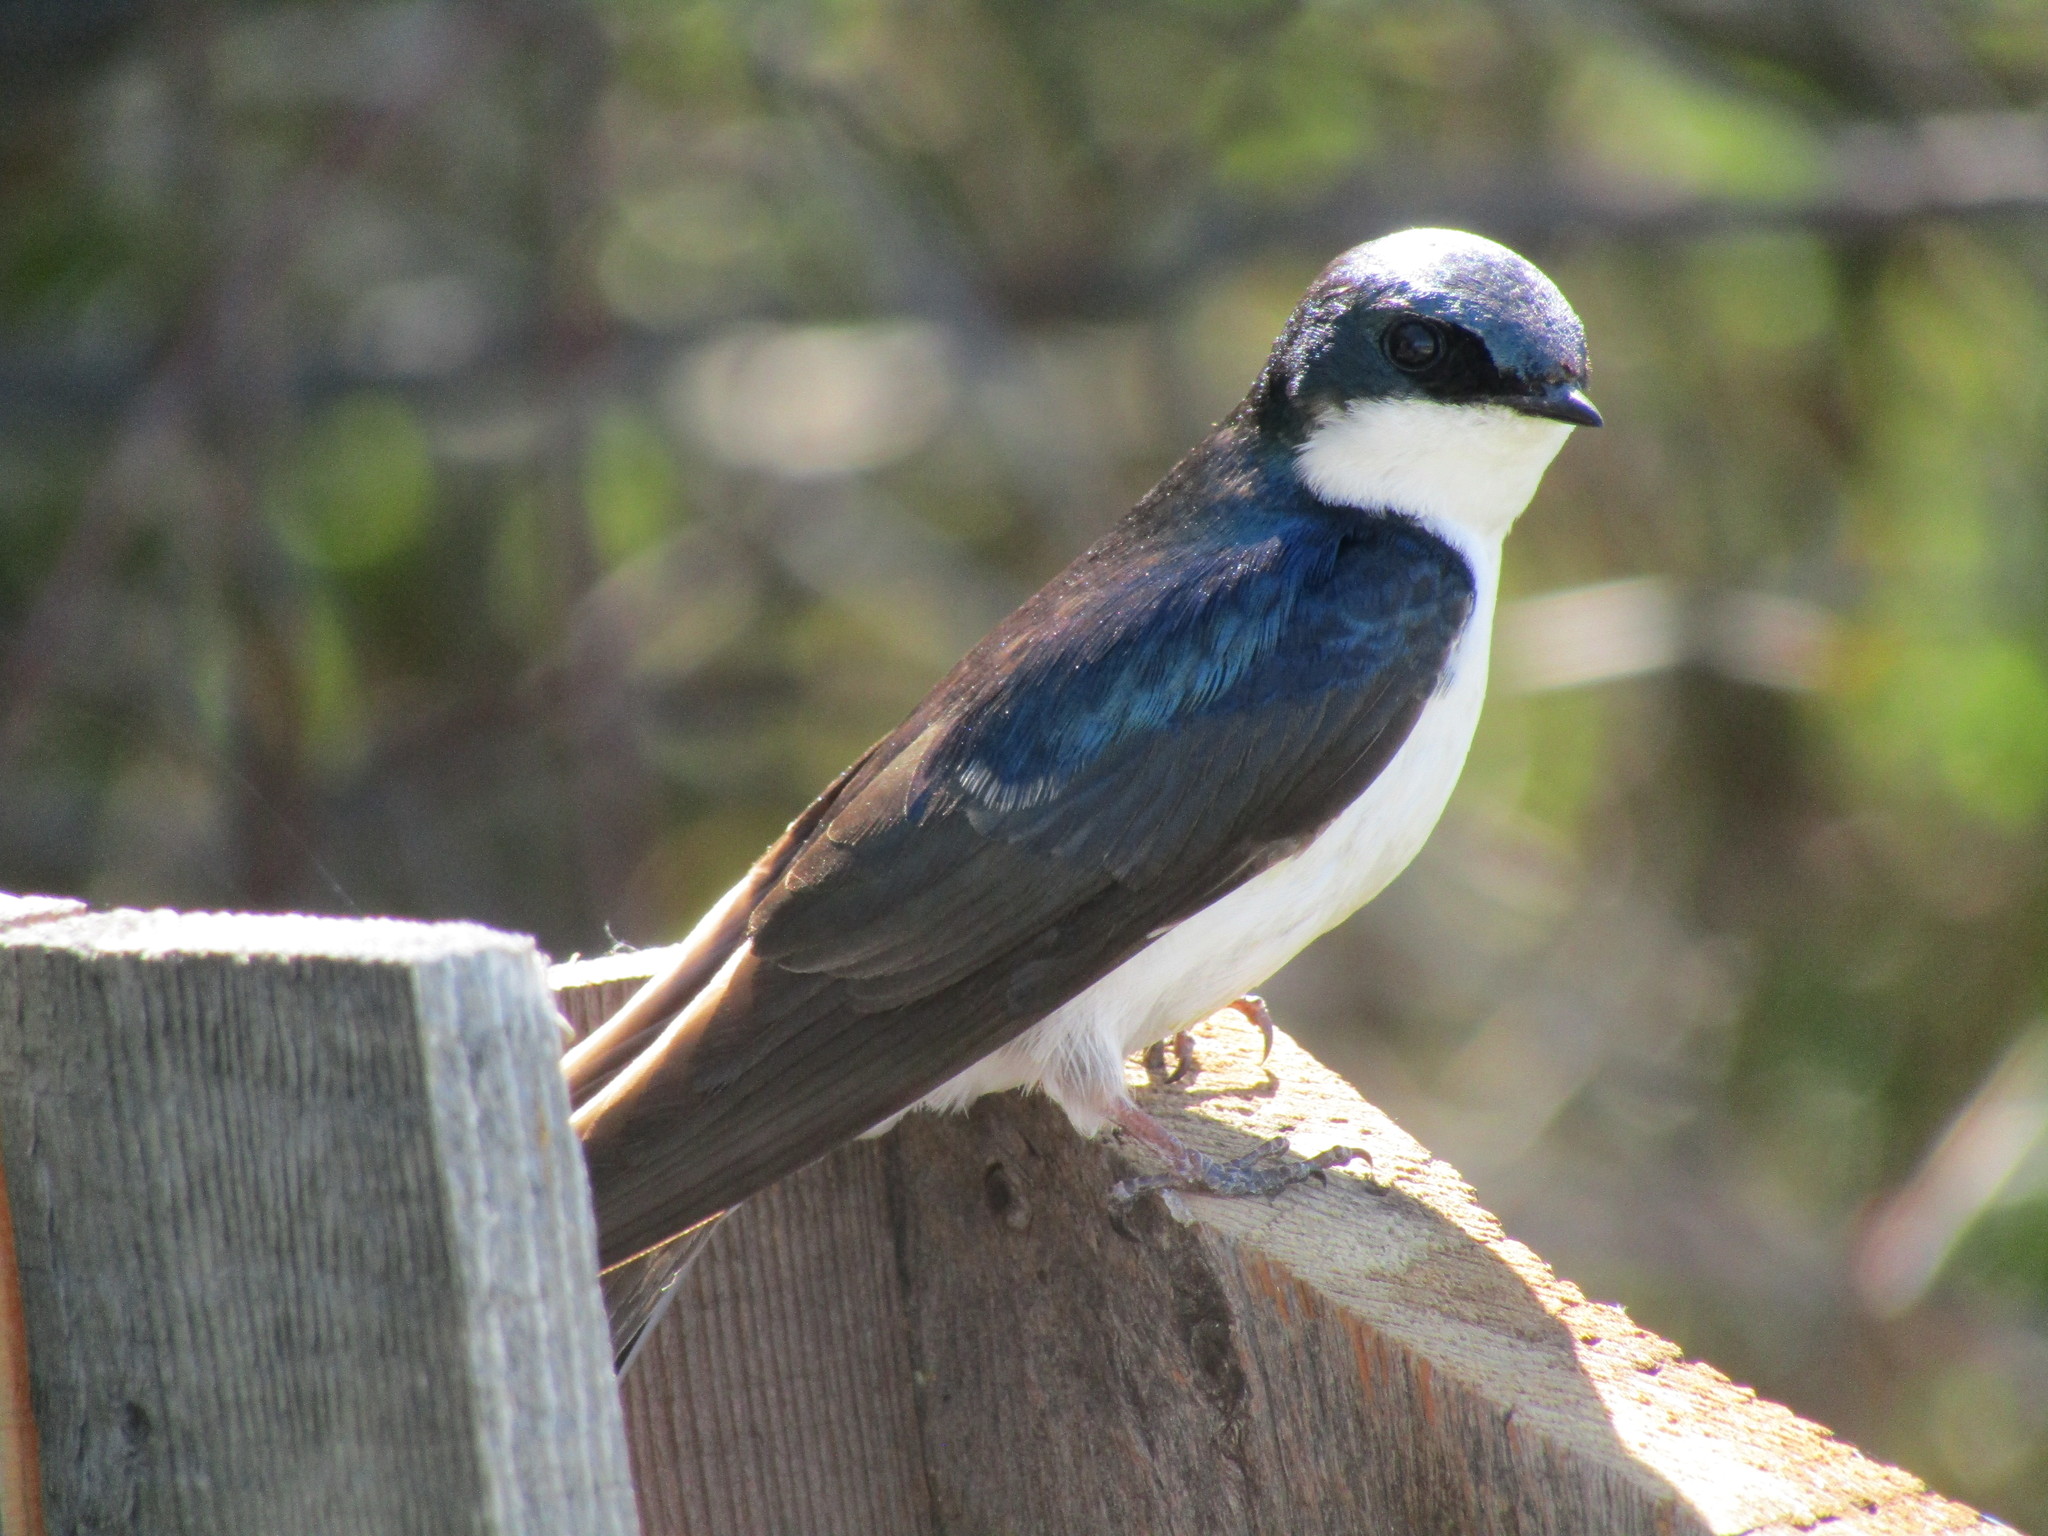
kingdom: Animalia
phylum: Chordata
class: Aves
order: Passeriformes
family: Hirundinidae
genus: Tachycineta
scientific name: Tachycineta bicolor
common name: Tree swallow
